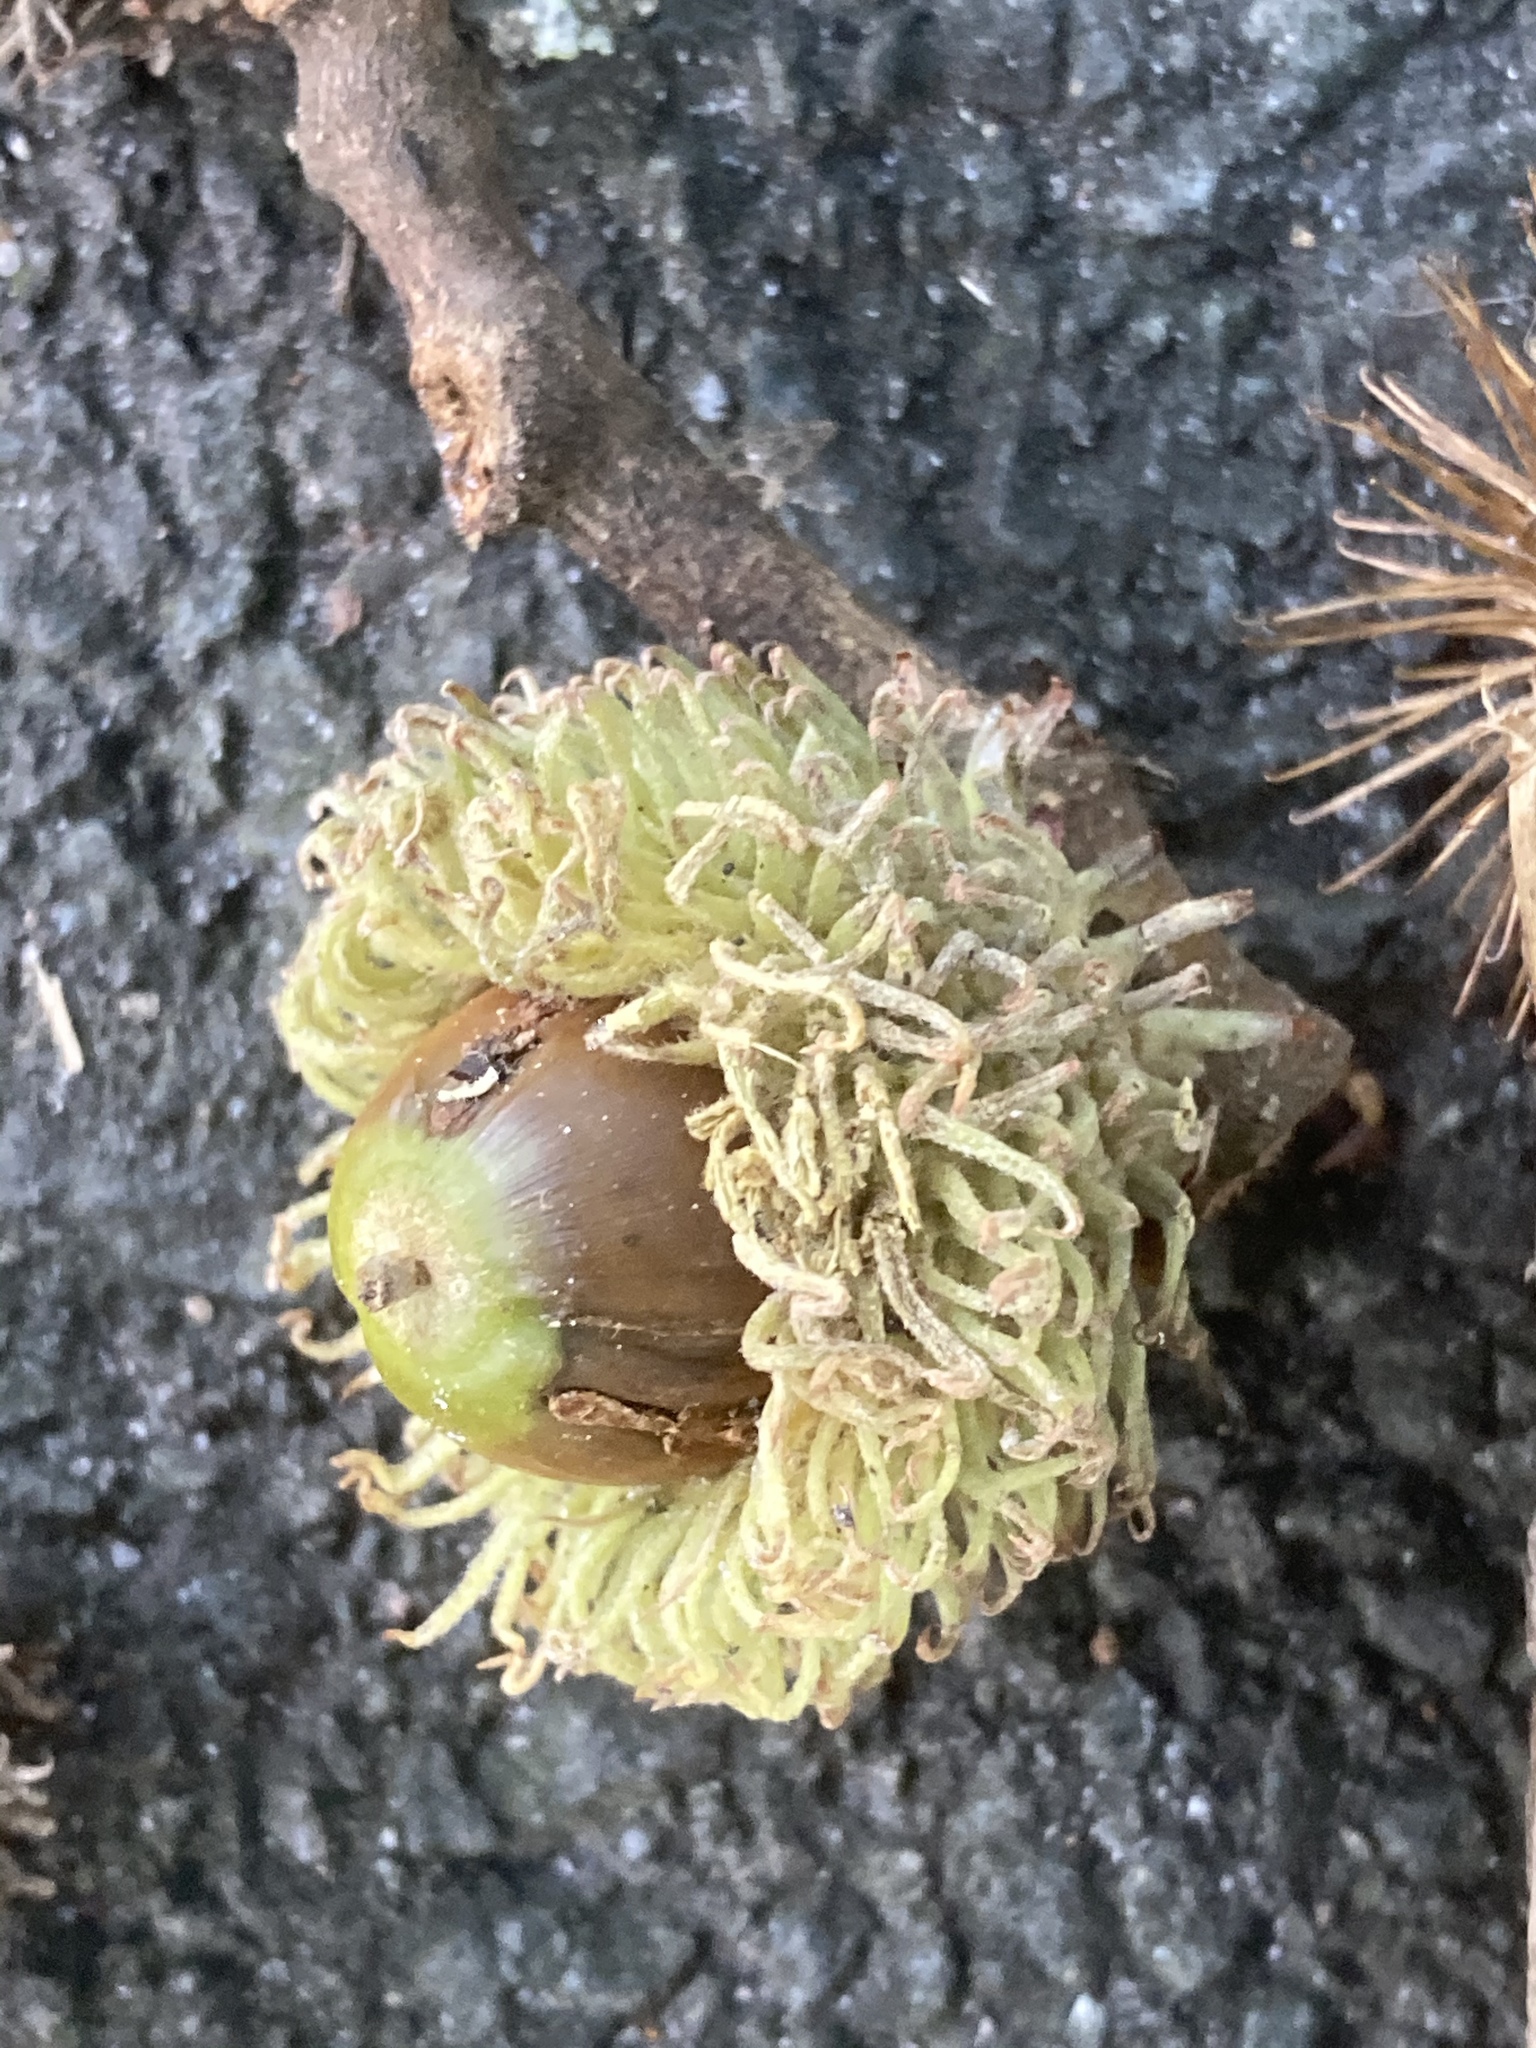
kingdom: Plantae
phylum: Tracheophyta
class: Magnoliopsida
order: Fagales
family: Fagaceae
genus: Quercus
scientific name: Quercus cerris
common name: Turkey oak
